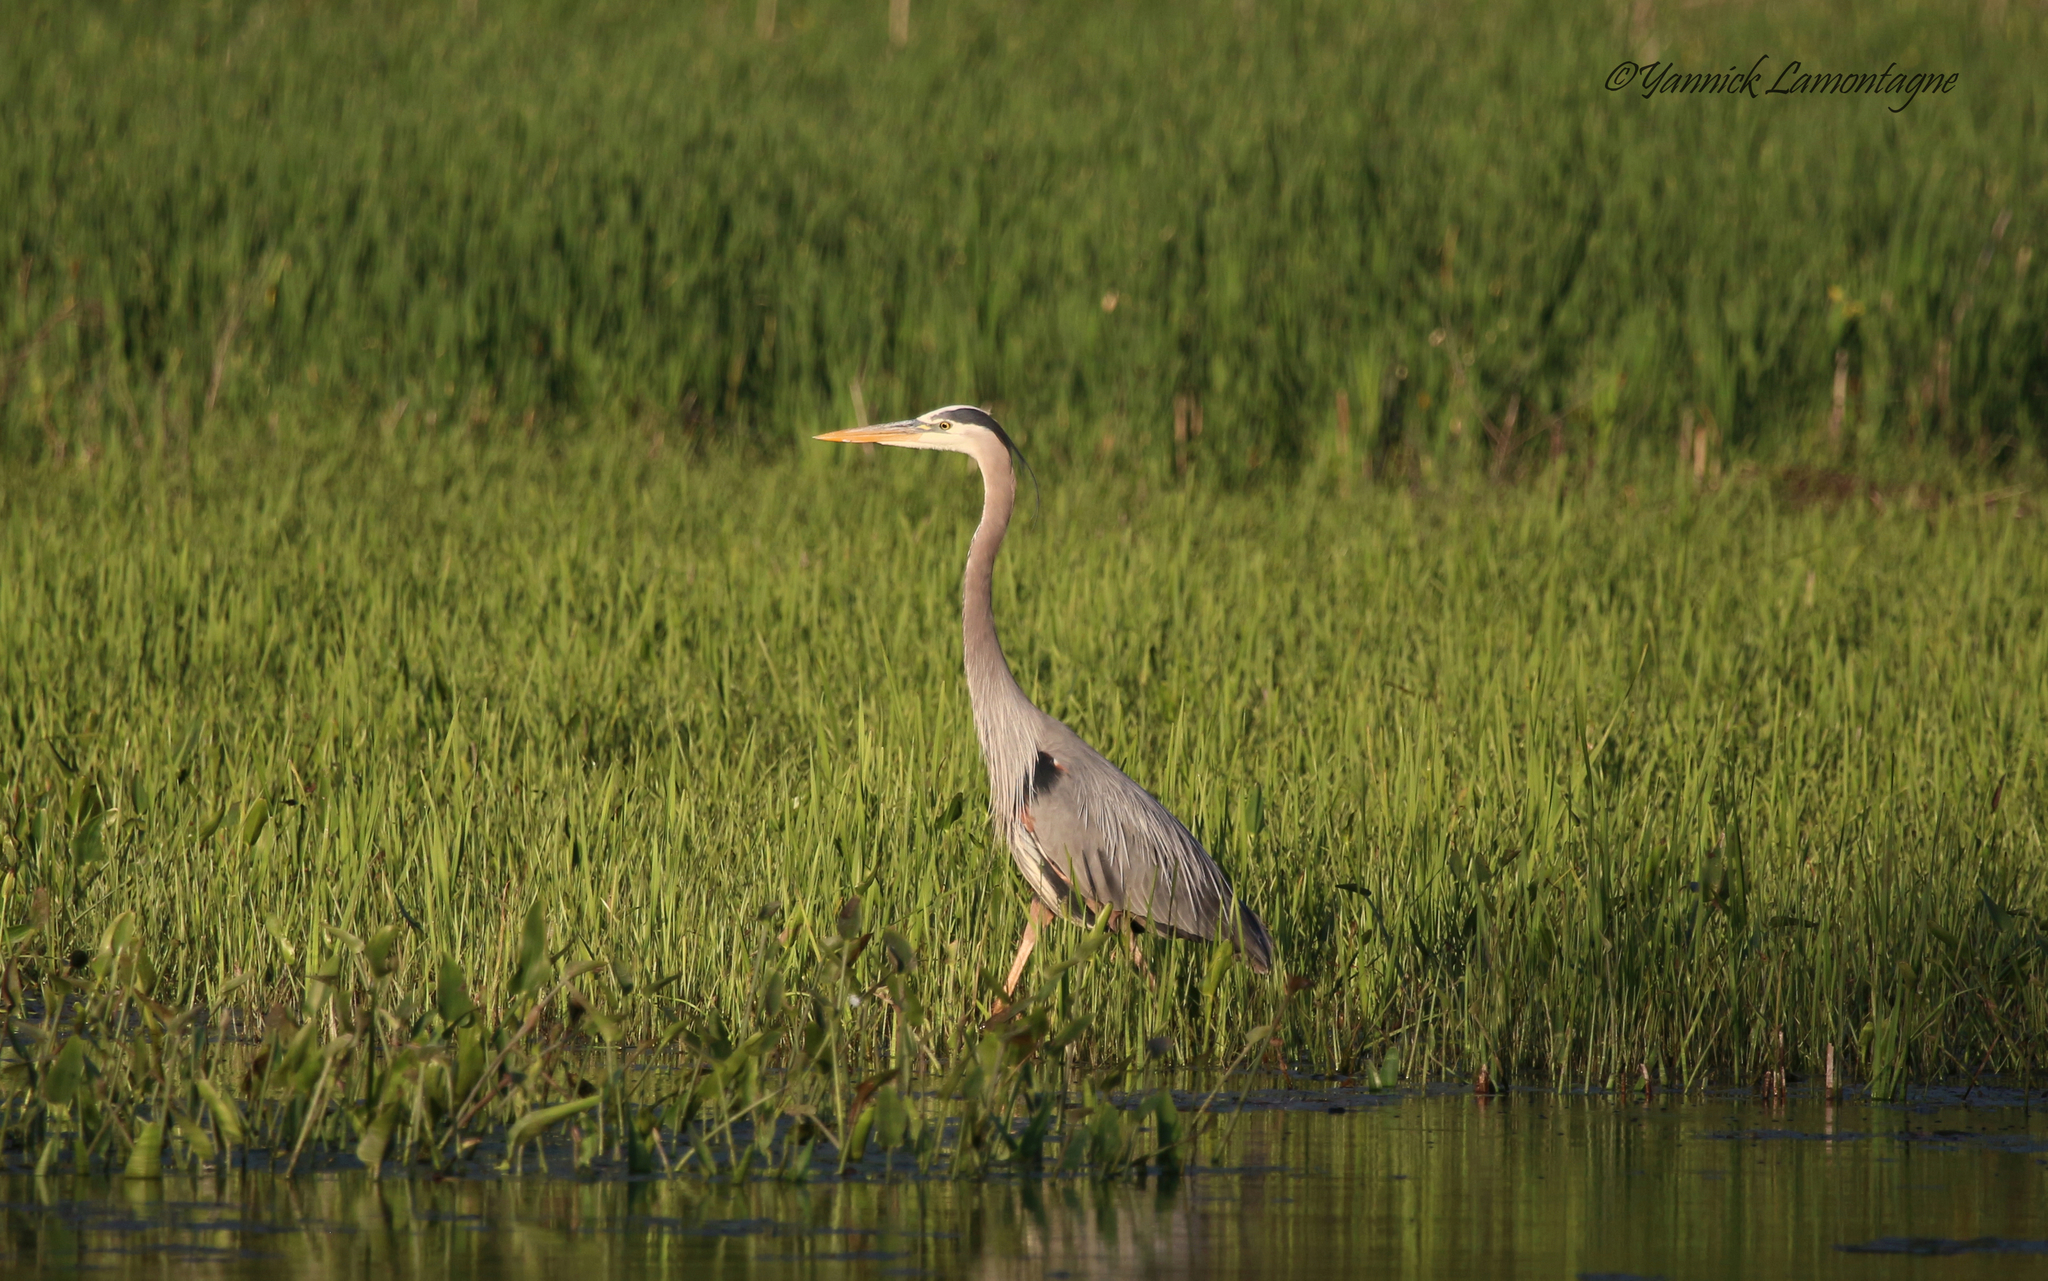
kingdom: Animalia
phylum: Chordata
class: Aves
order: Pelecaniformes
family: Ardeidae
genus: Ardea
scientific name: Ardea herodias
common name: Great blue heron
